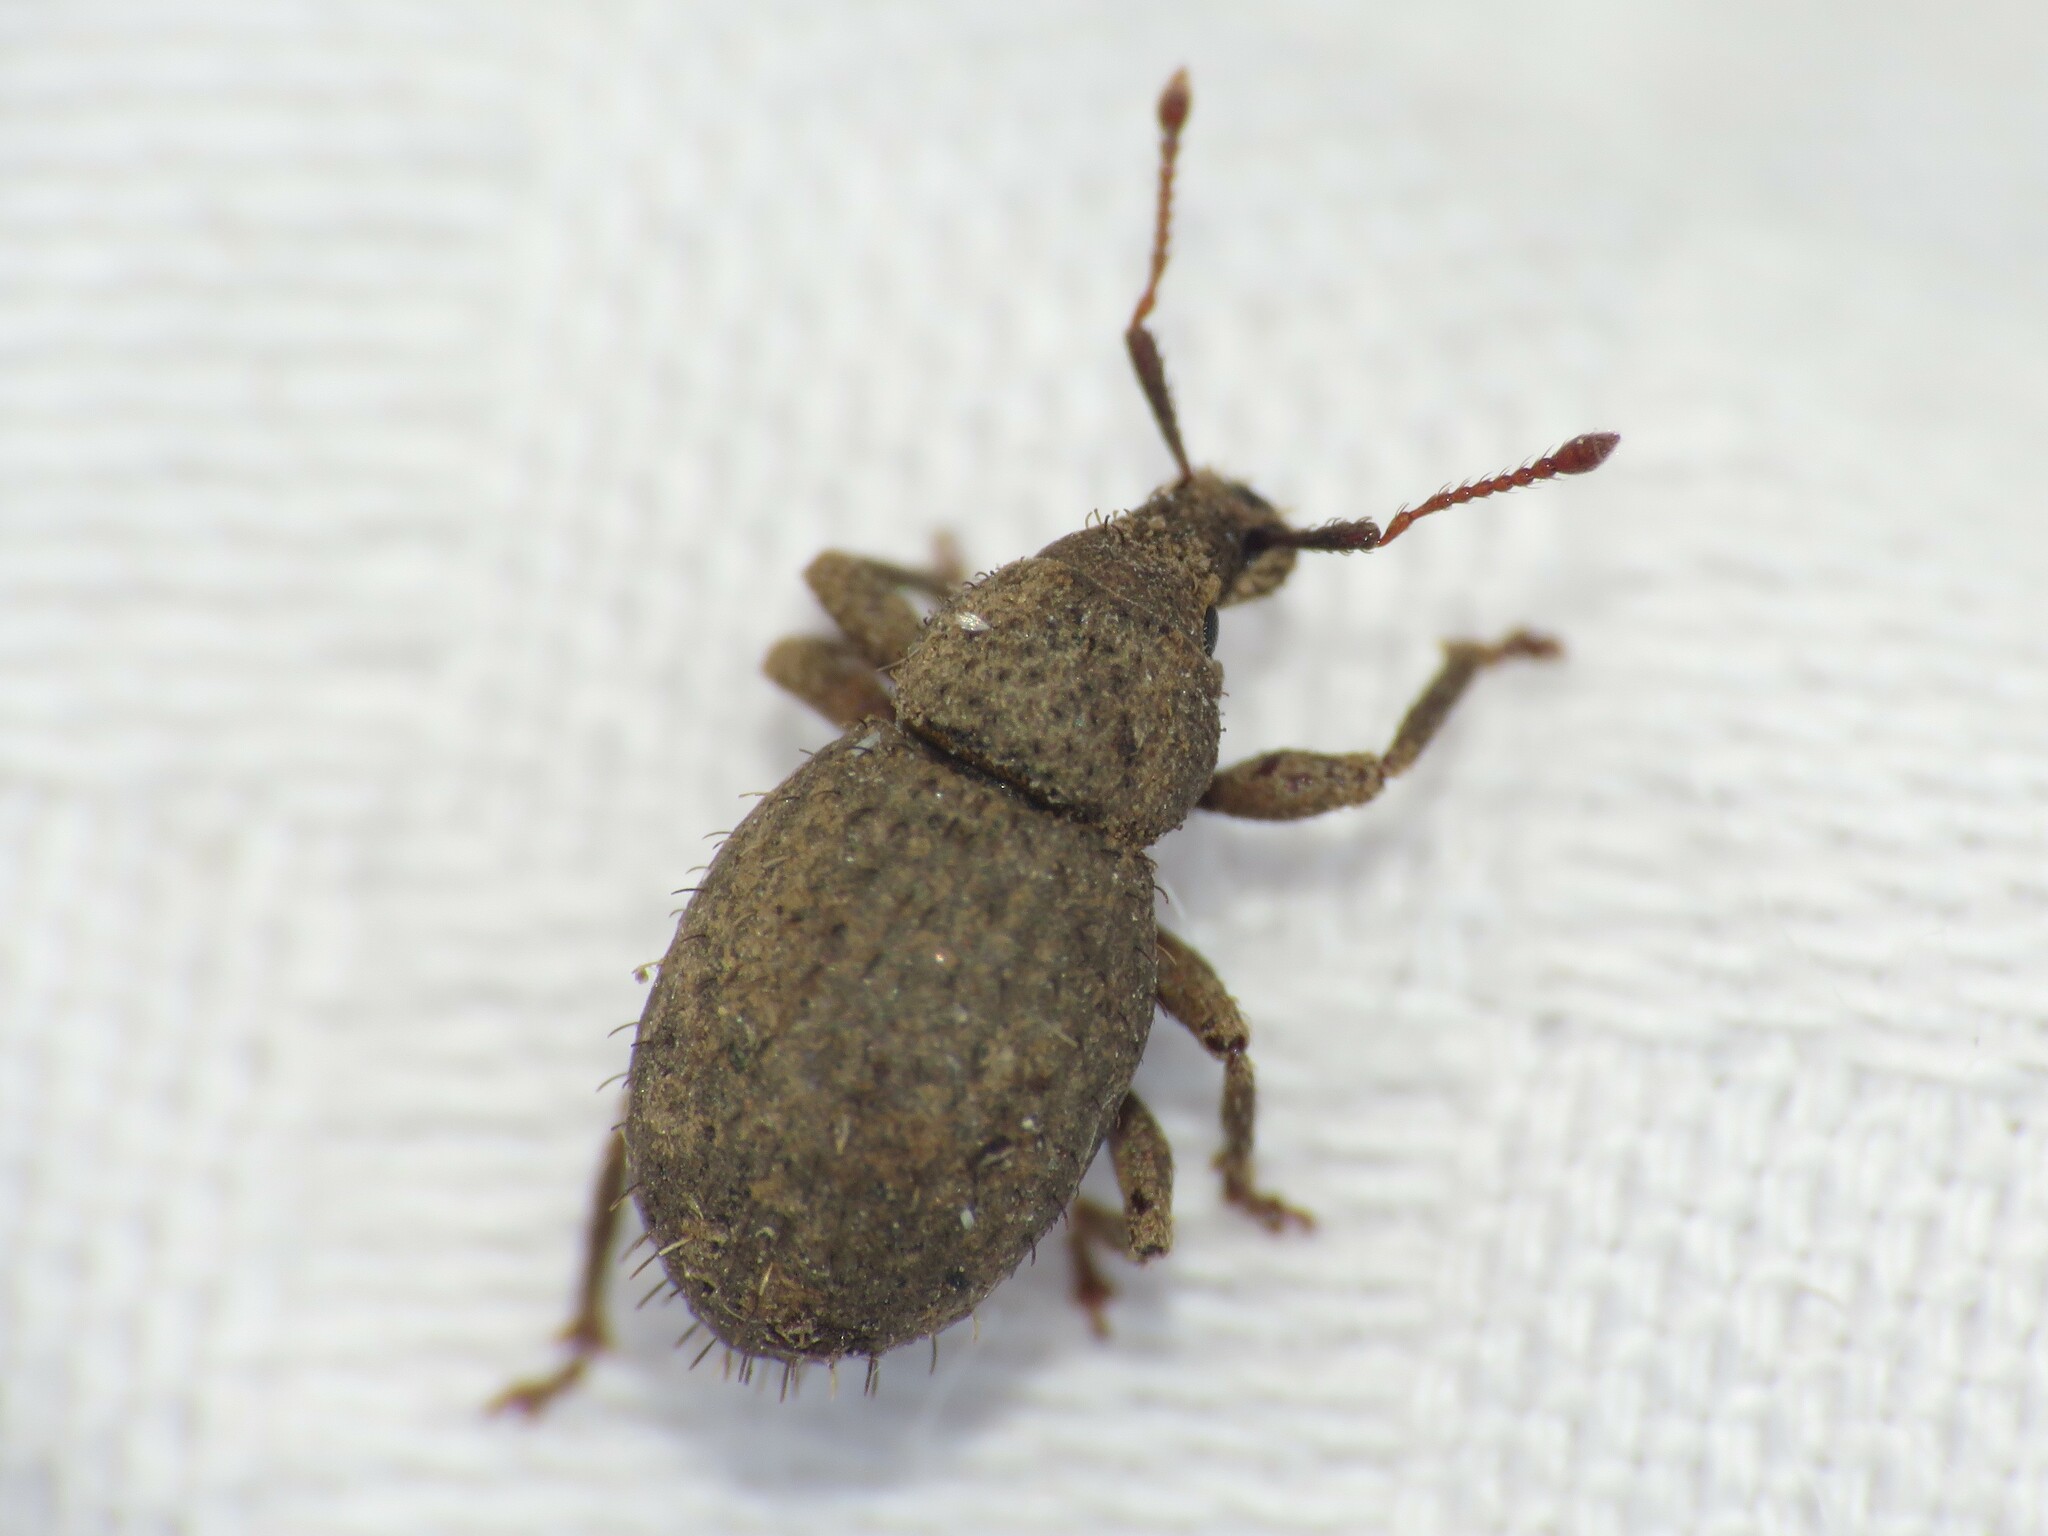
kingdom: Animalia
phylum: Arthropoda
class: Insecta
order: Coleoptera
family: Curculionidae
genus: Phyxelis
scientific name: Phyxelis rigidus
